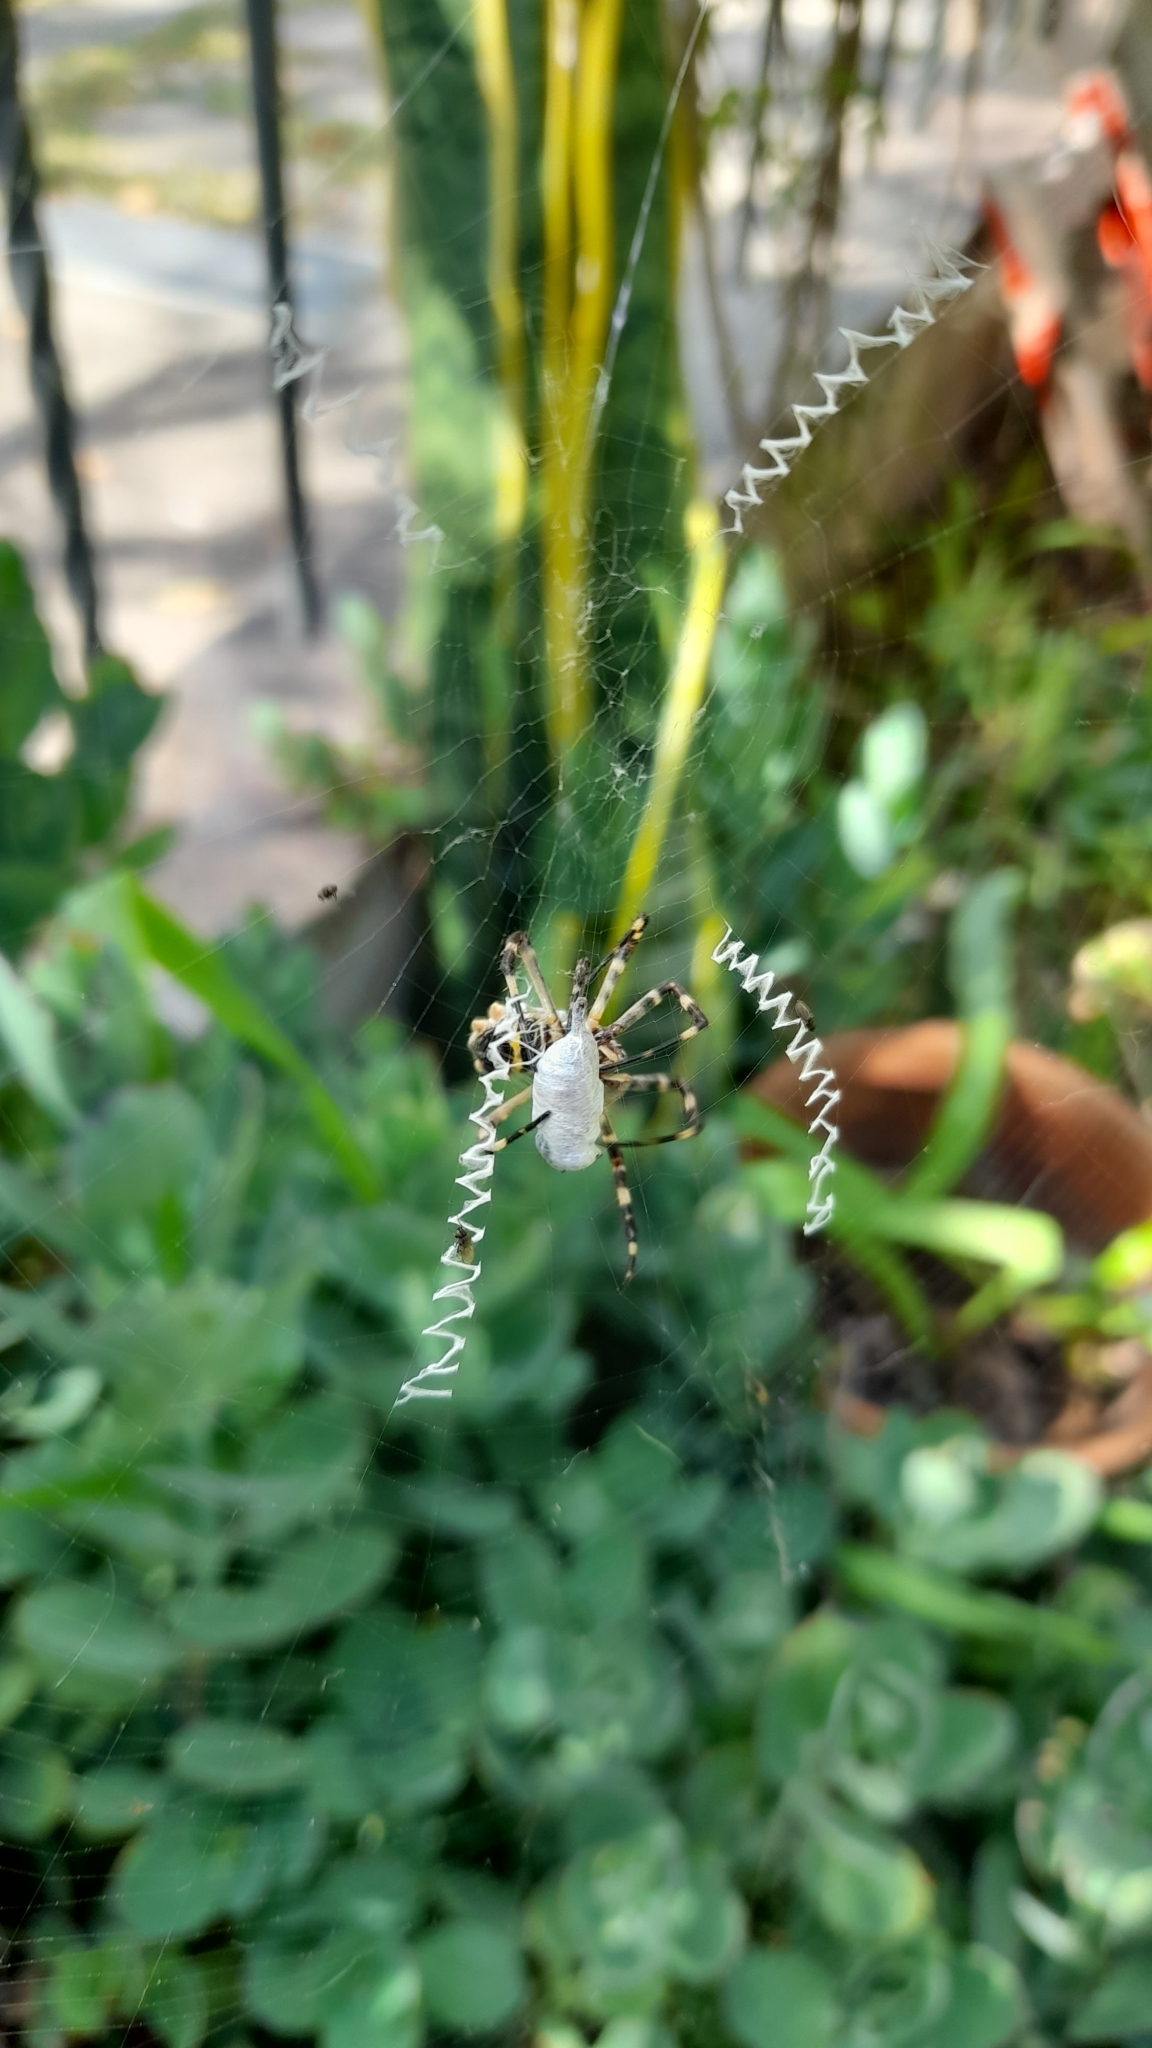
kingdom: Animalia
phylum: Arthropoda
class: Arachnida
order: Araneae
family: Araneidae
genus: Argiope
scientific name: Argiope argentata
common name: Orb weavers
